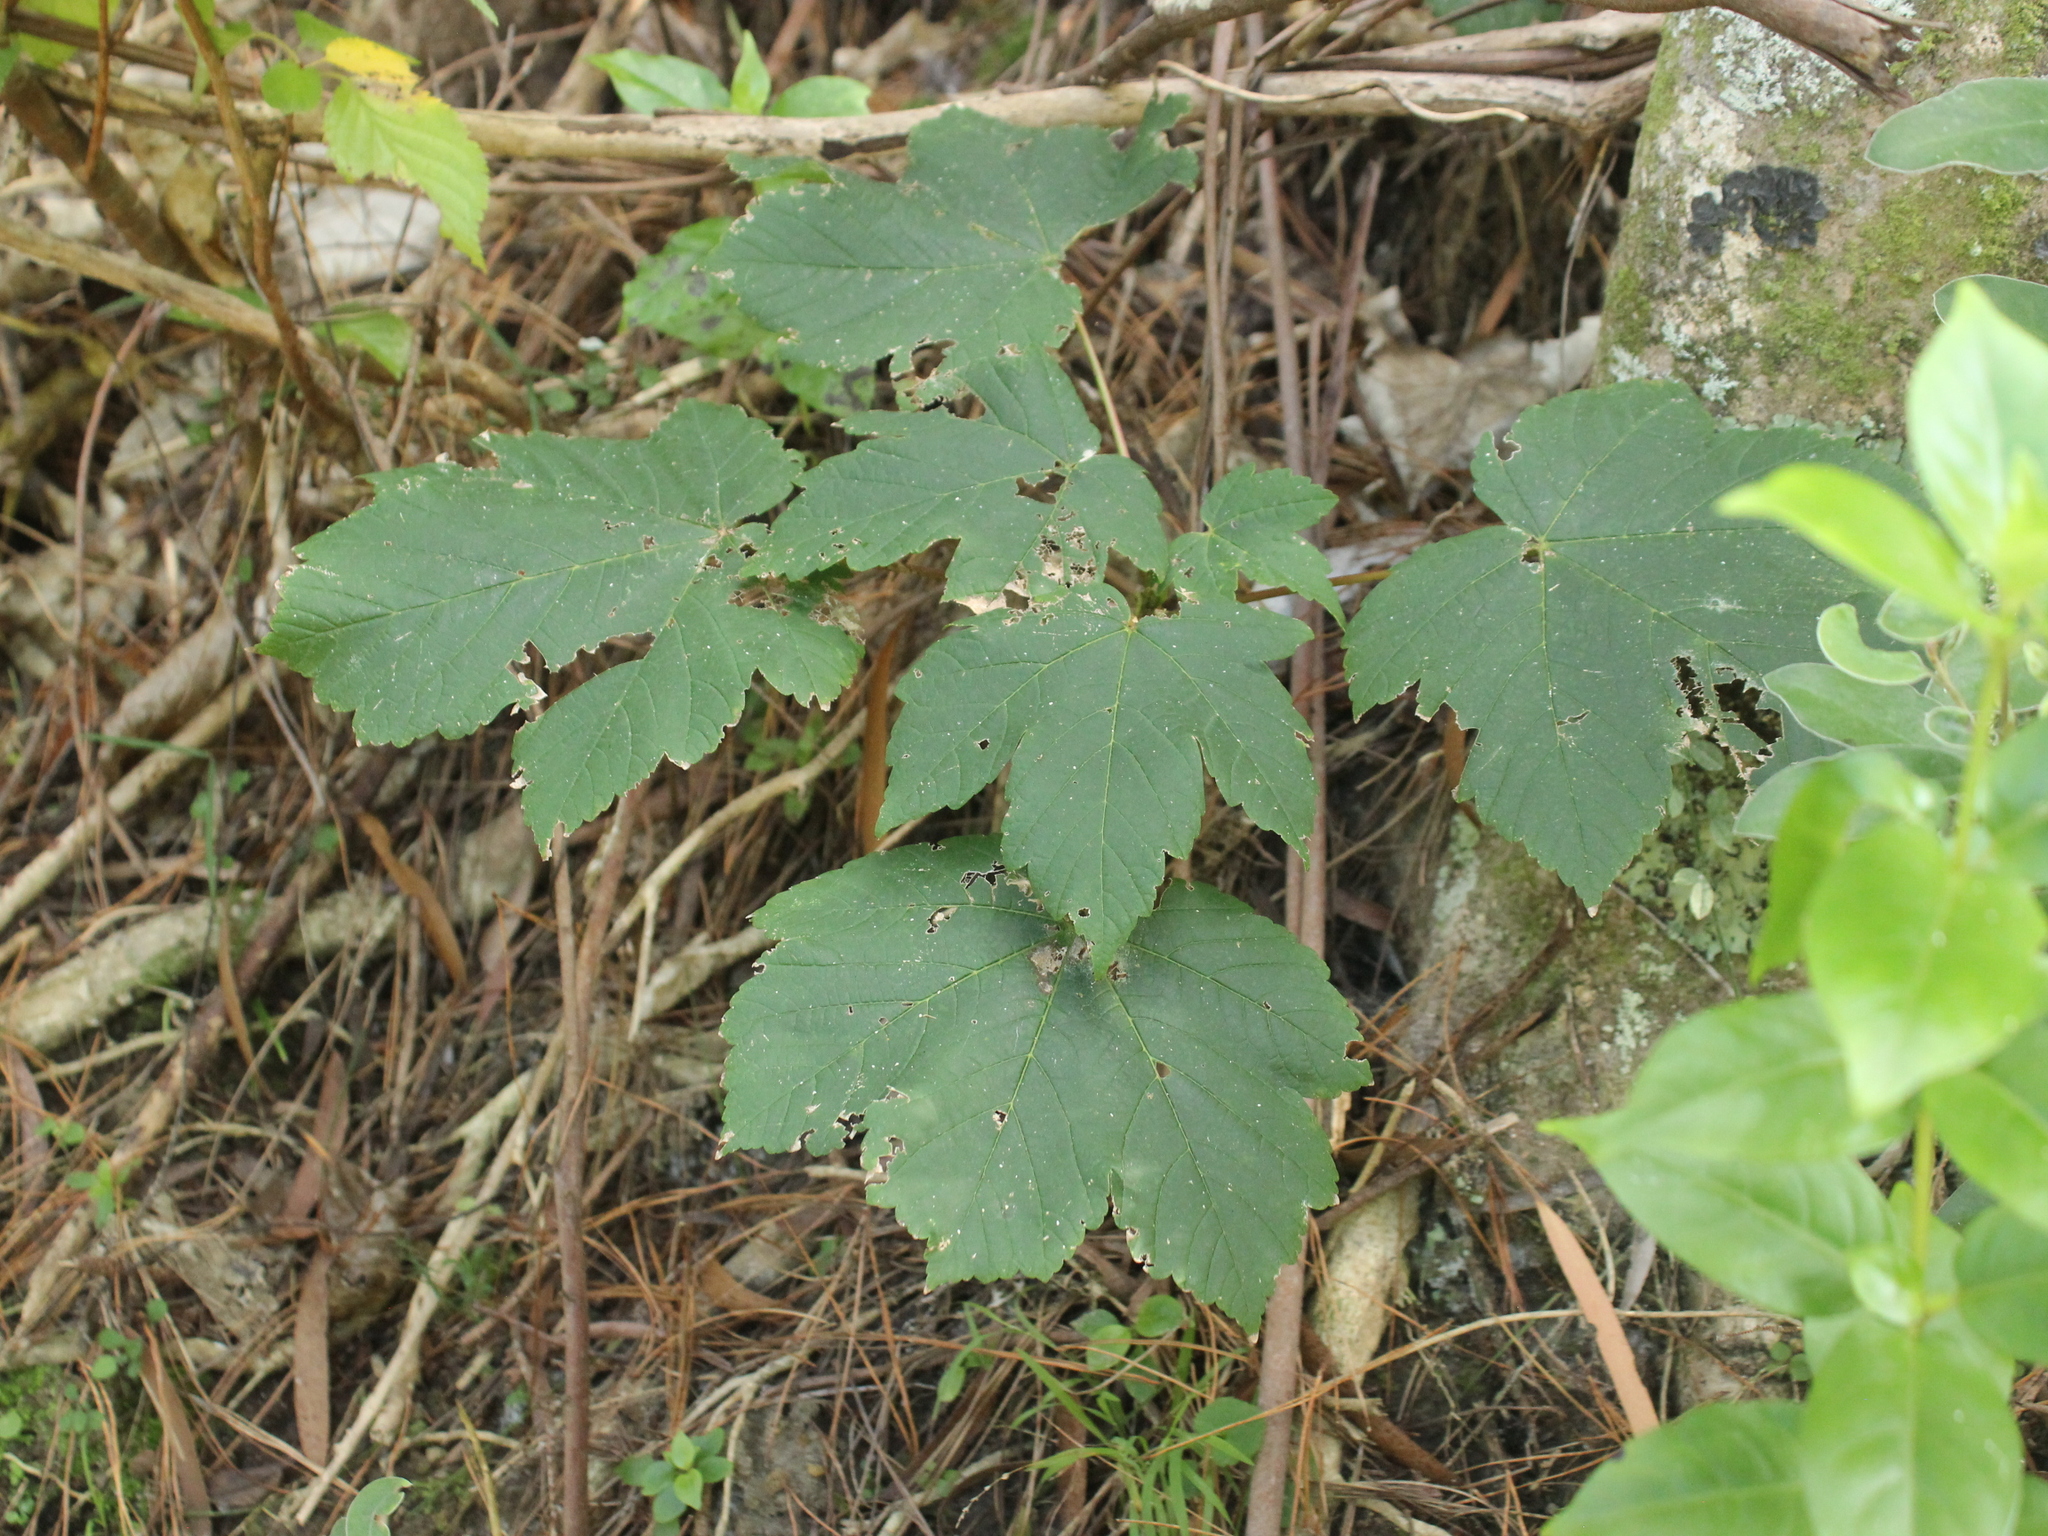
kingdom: Plantae
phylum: Tracheophyta
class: Magnoliopsida
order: Sapindales
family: Sapindaceae
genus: Acer
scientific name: Acer pseudoplatanus
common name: Sycamore
